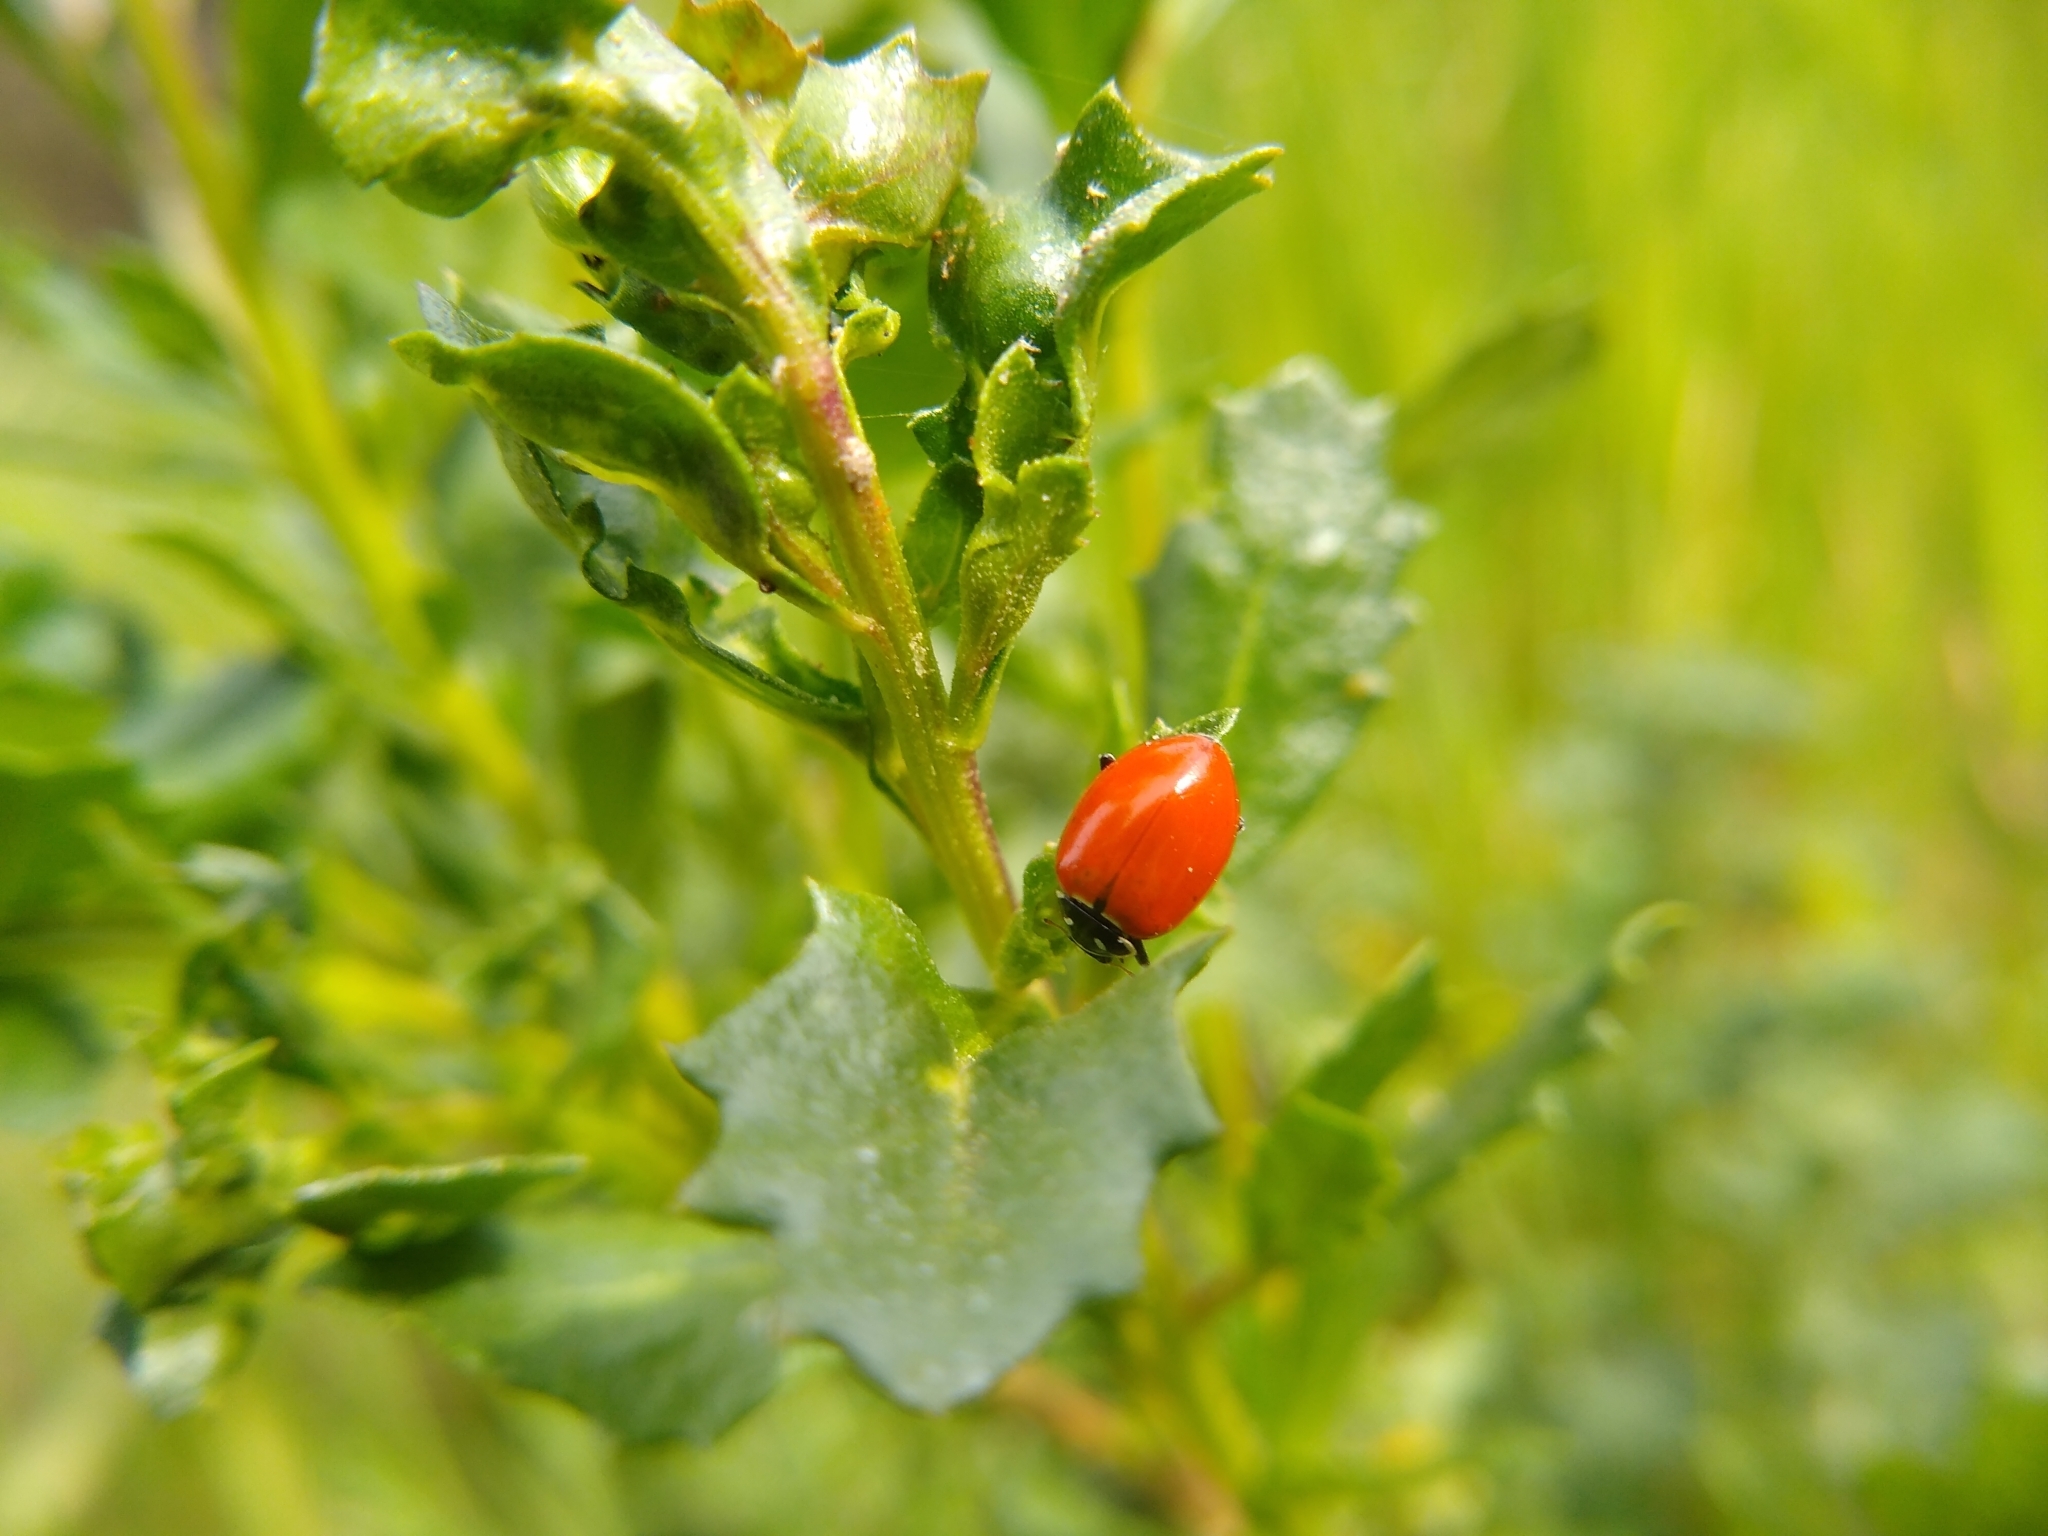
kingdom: Animalia
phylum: Arthropoda
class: Insecta
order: Coleoptera
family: Coccinellidae
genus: Hippodamia
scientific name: Hippodamia convergens
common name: Convergent lady beetle
